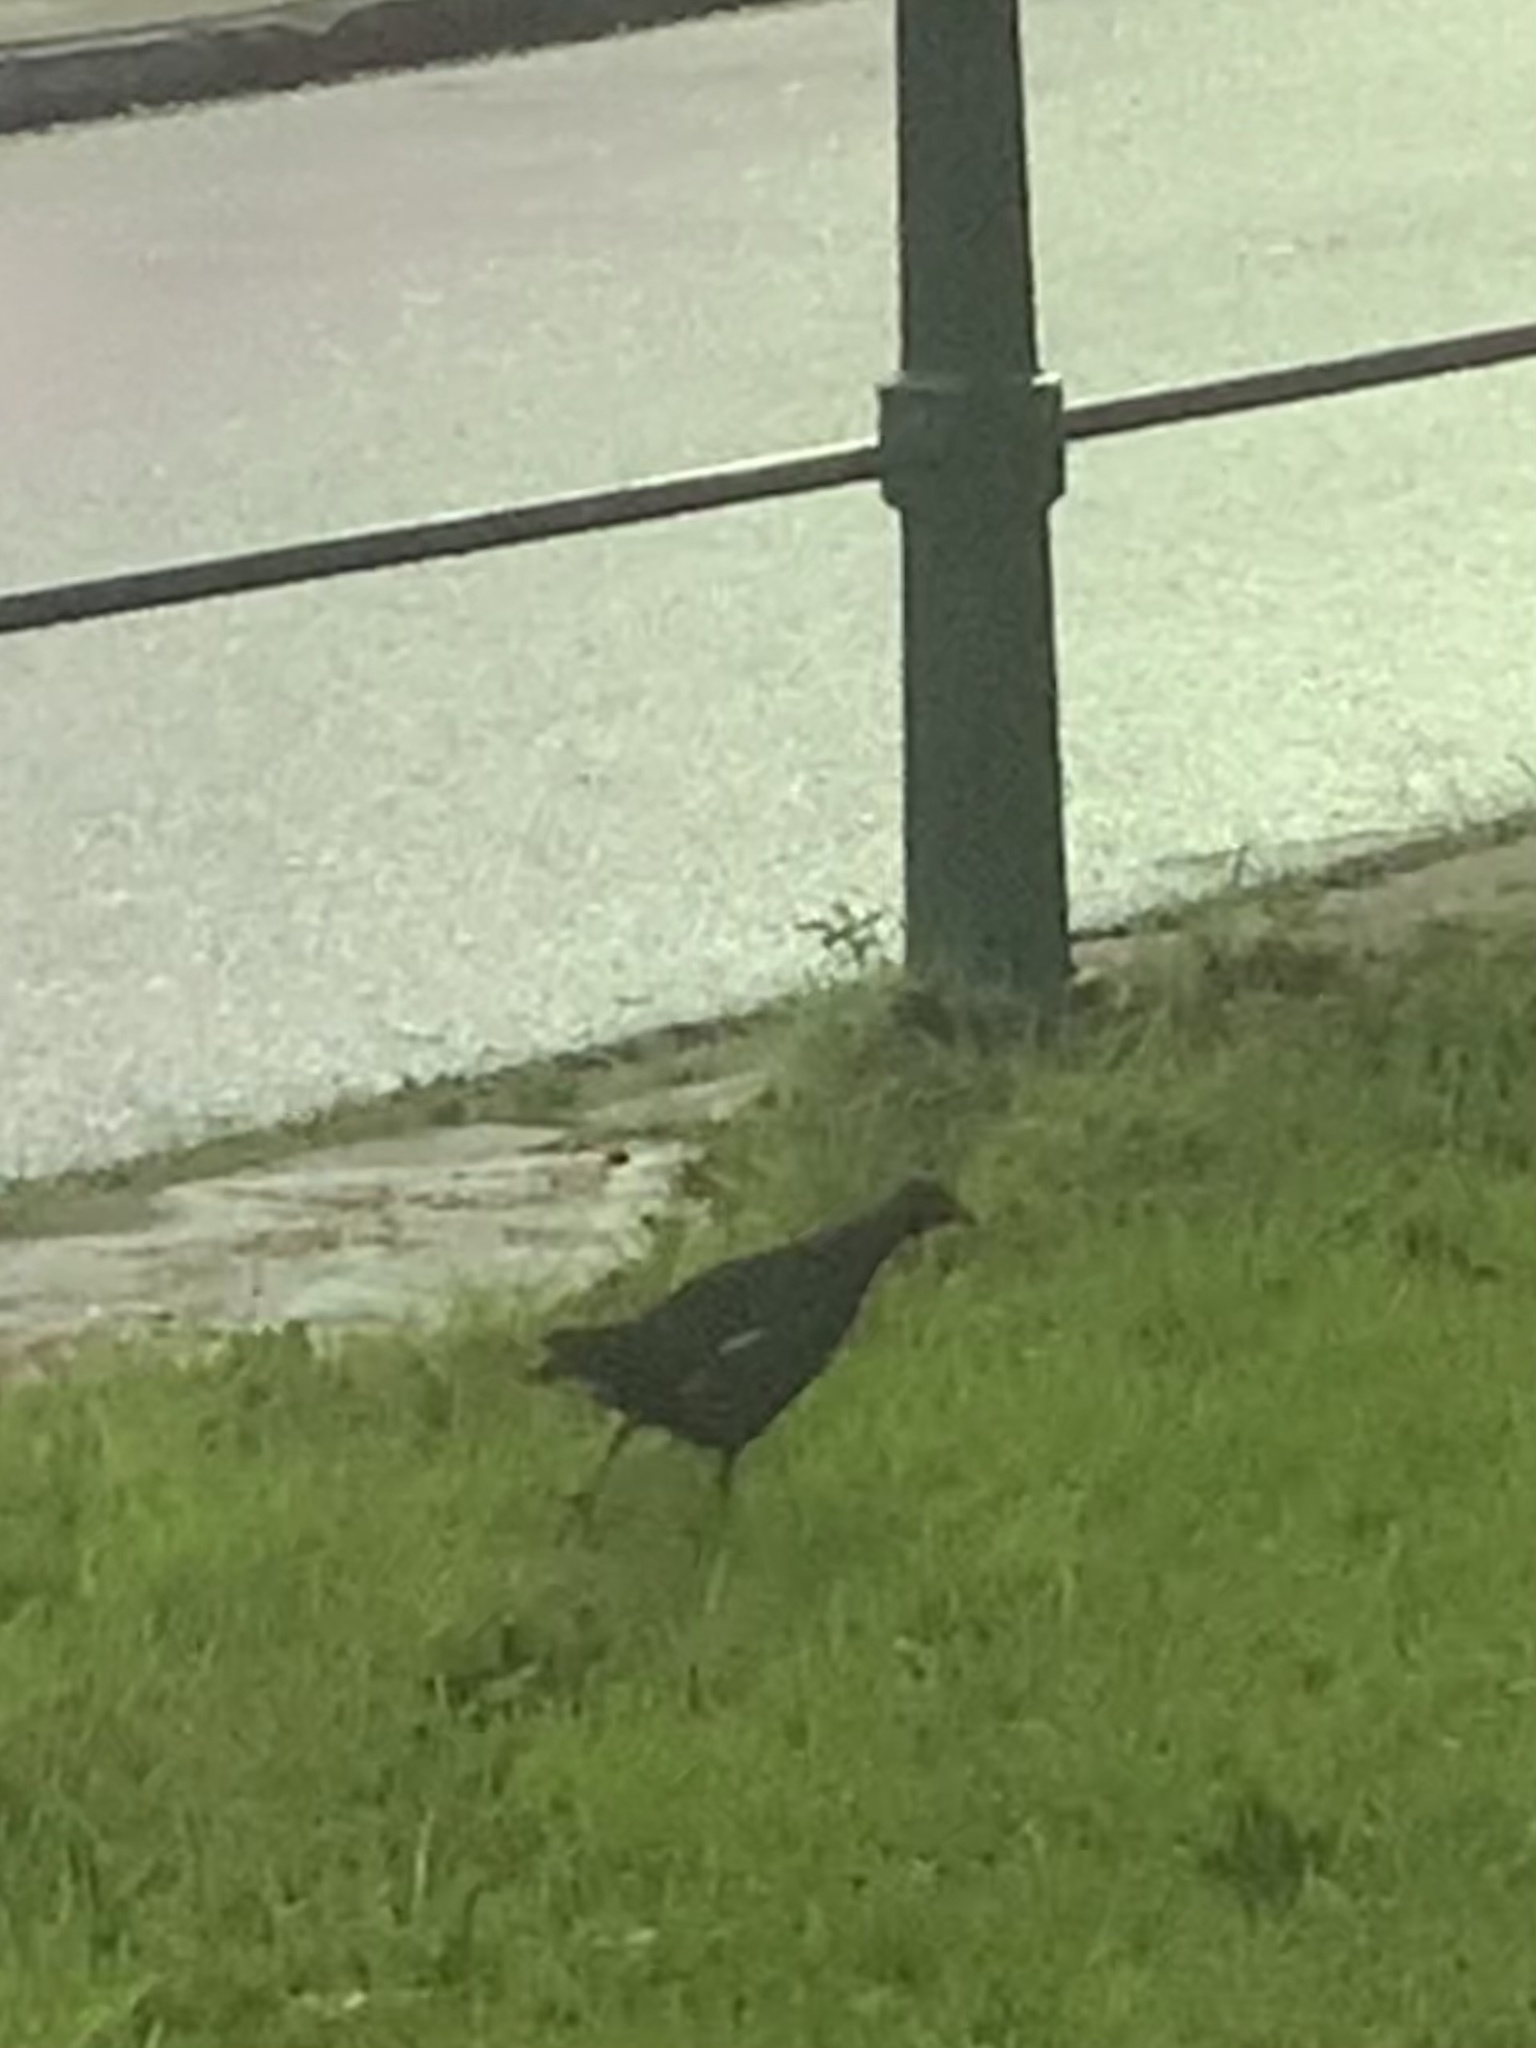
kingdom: Animalia
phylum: Chordata
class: Aves
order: Gruiformes
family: Rallidae
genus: Gallinula
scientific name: Gallinula chloropus
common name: Common moorhen
